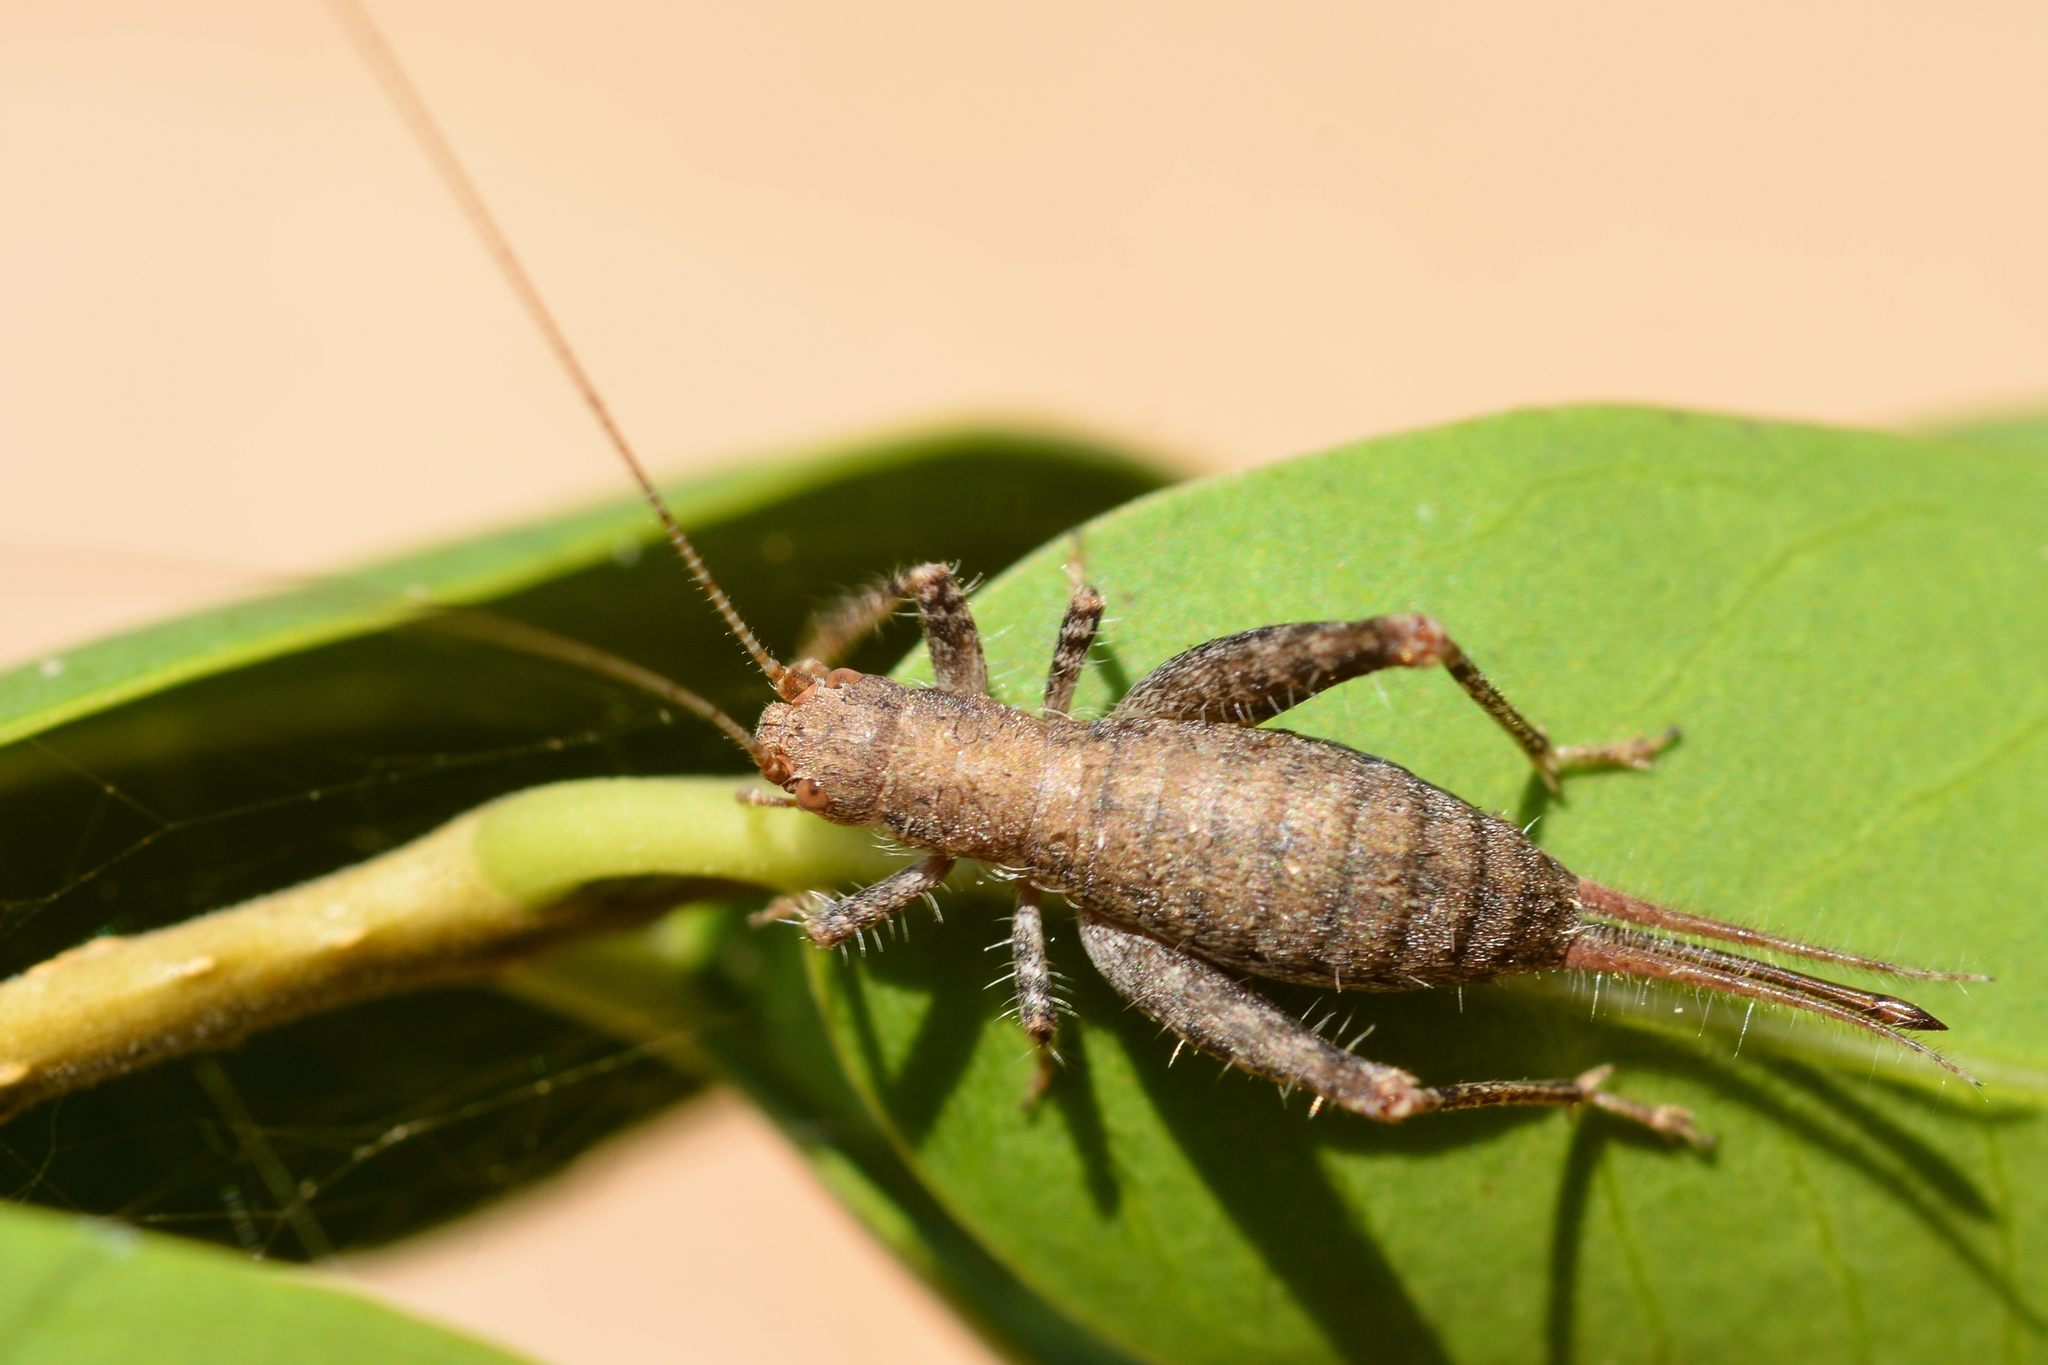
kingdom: Animalia
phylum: Arthropoda
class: Insecta
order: Orthoptera
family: Mogoplistidae
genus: Arachnocephalus
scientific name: Arachnocephalus vestitus
